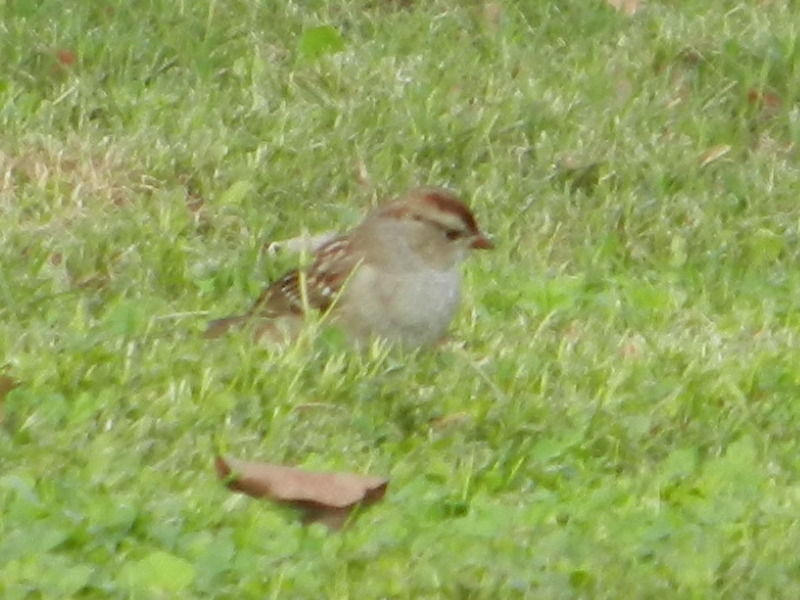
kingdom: Animalia
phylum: Chordata
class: Aves
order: Passeriformes
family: Passerellidae
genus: Zonotrichia
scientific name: Zonotrichia leucophrys
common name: White-crowned sparrow
